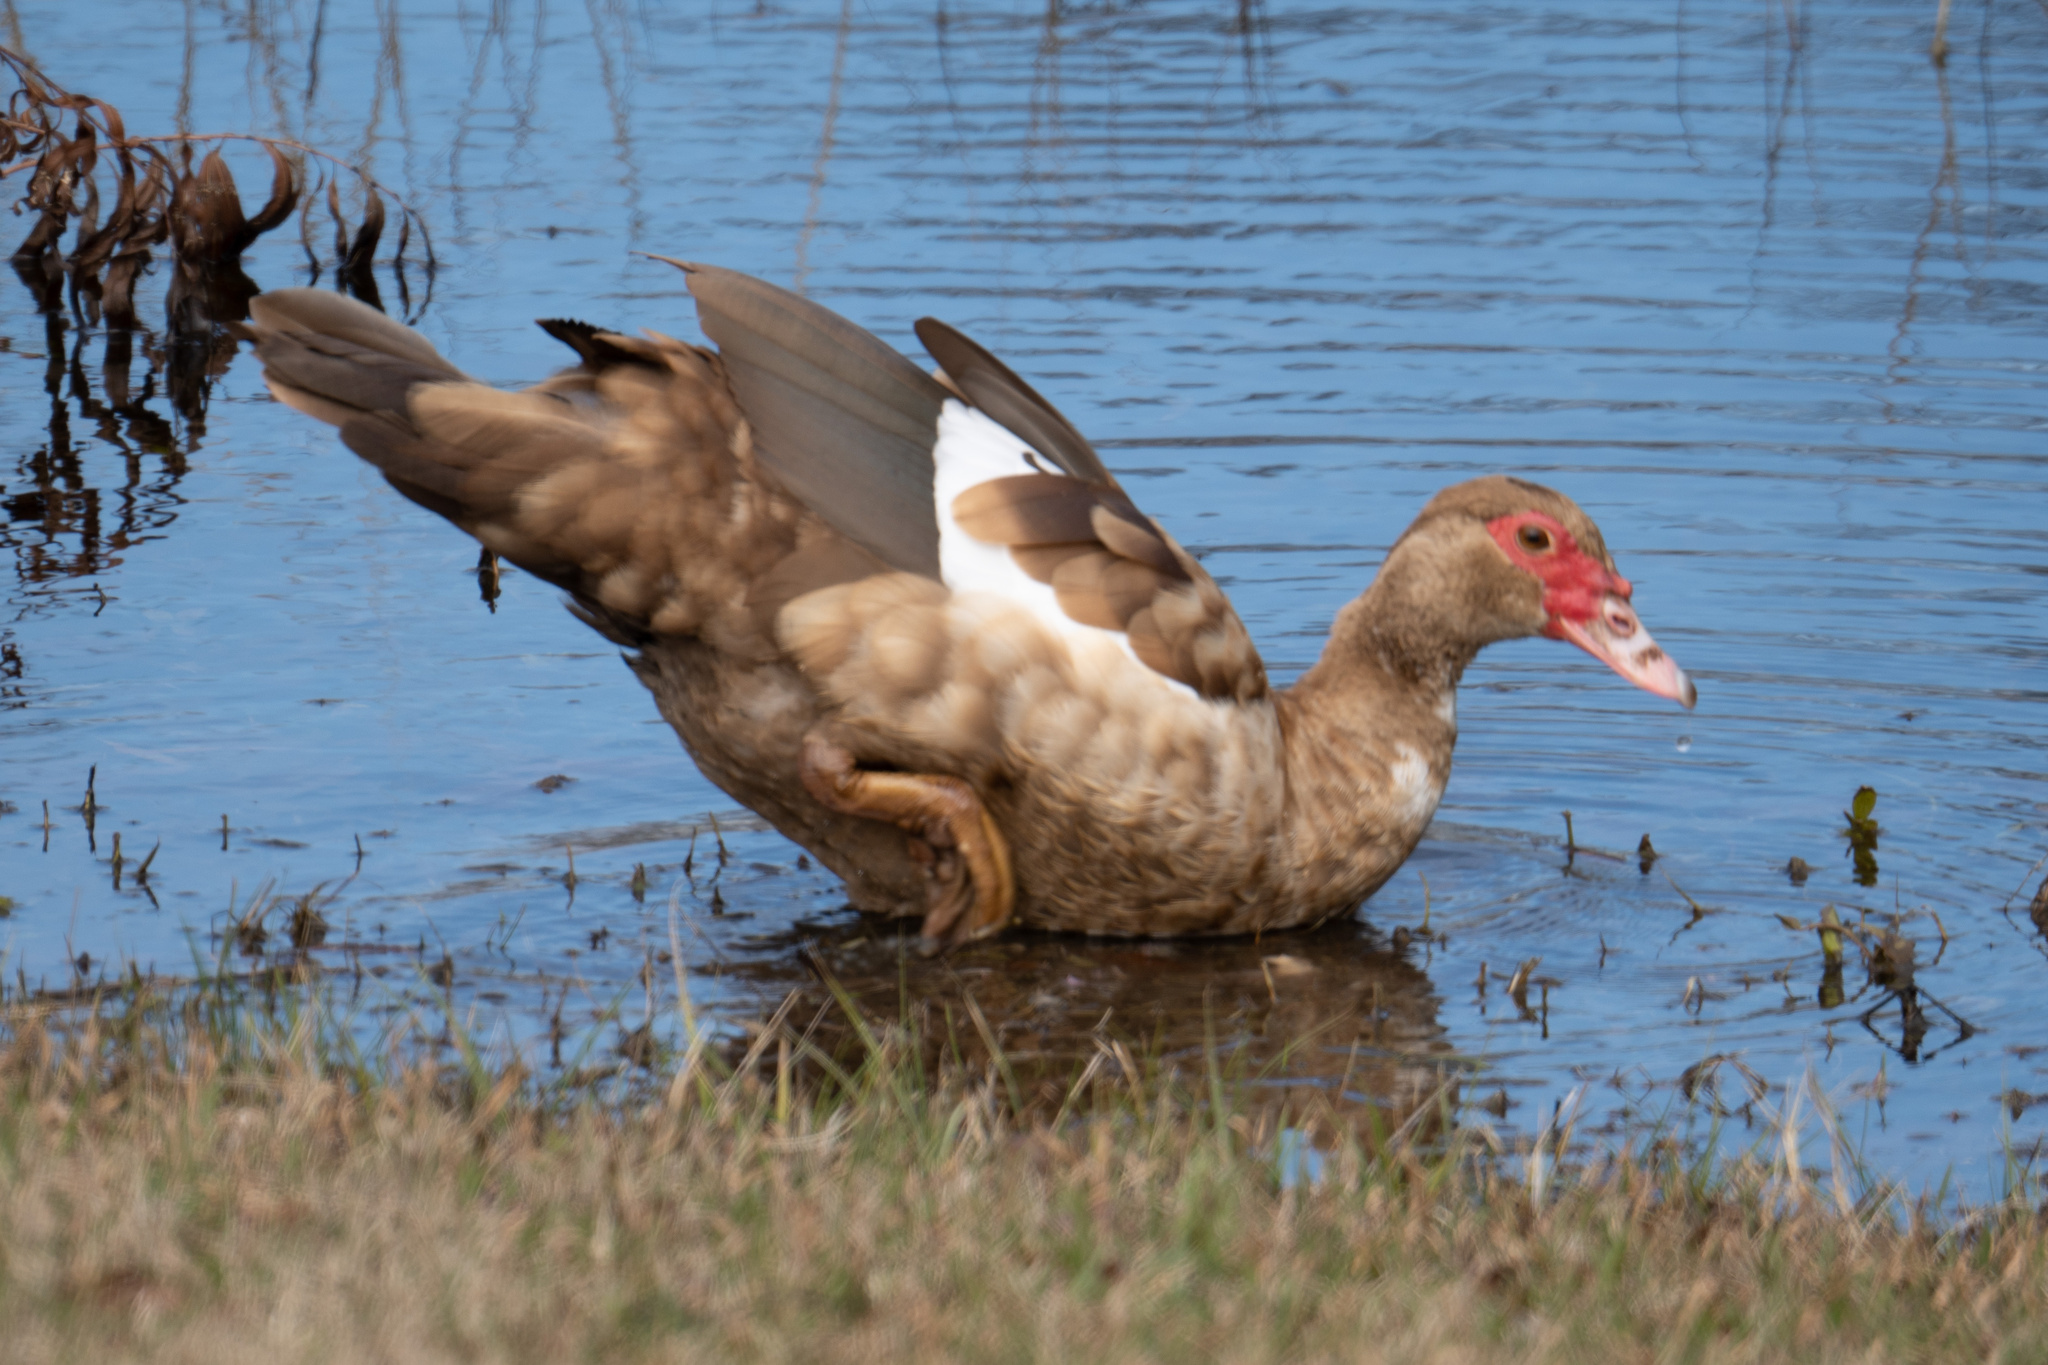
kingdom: Animalia
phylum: Chordata
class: Aves
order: Anseriformes
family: Anatidae
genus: Cairina
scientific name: Cairina moschata
